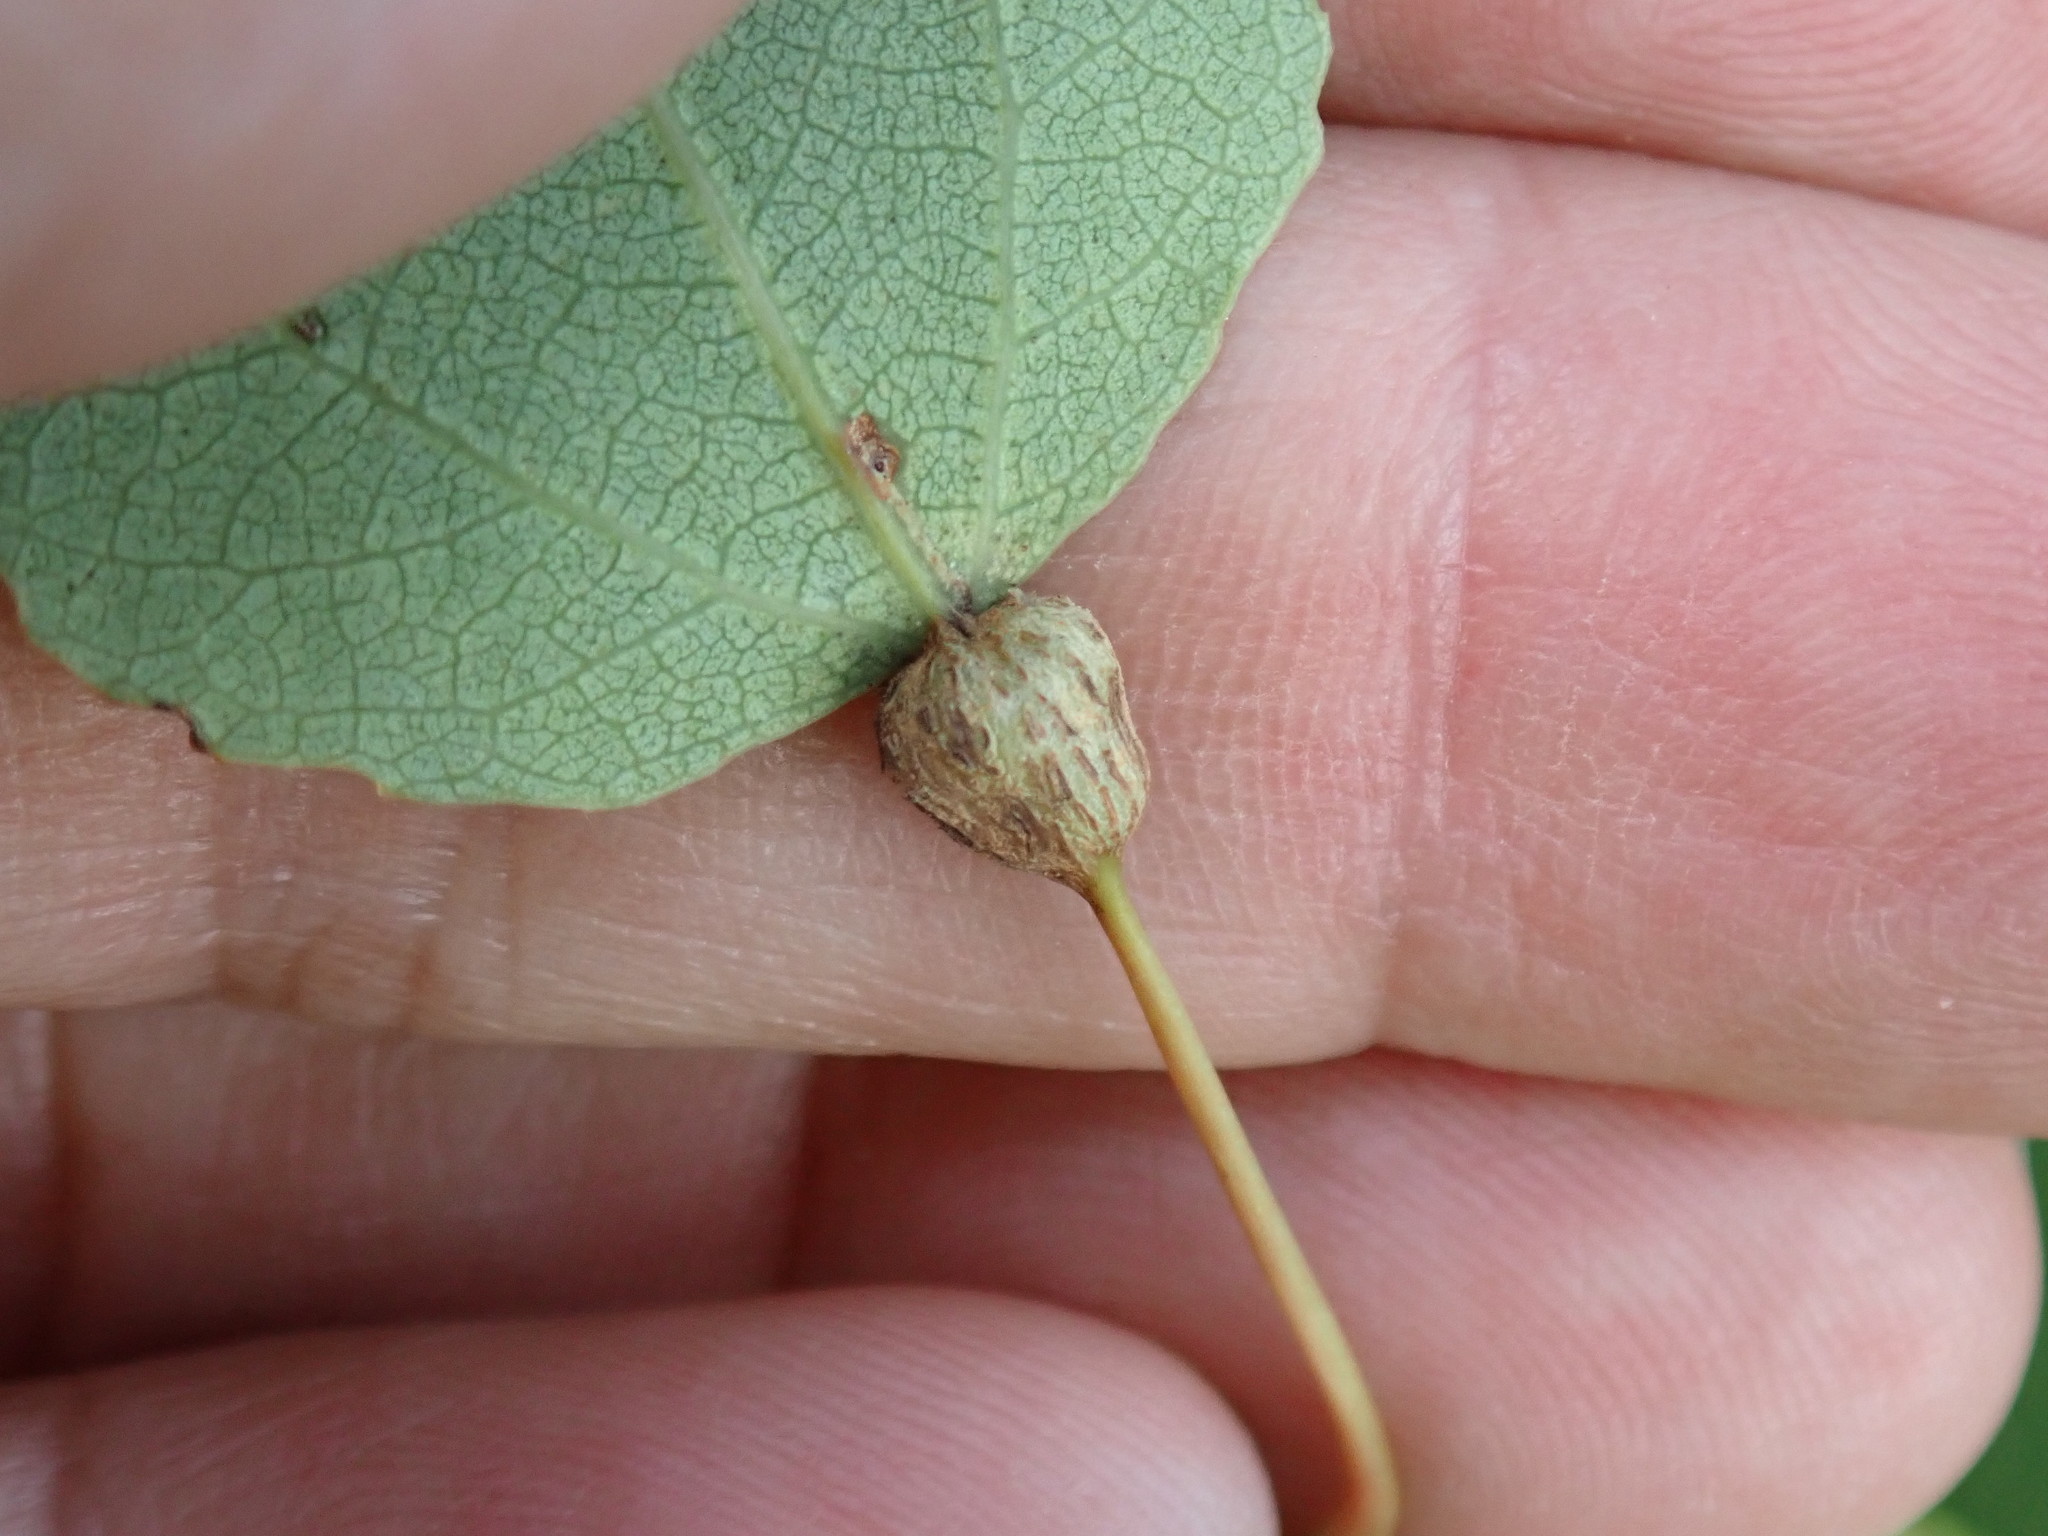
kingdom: Animalia
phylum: Arthropoda
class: Insecta
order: Lepidoptera
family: Nepticulidae
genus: Ectoedemia
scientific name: Ectoedemia populella
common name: Aspen petiole gall moth
